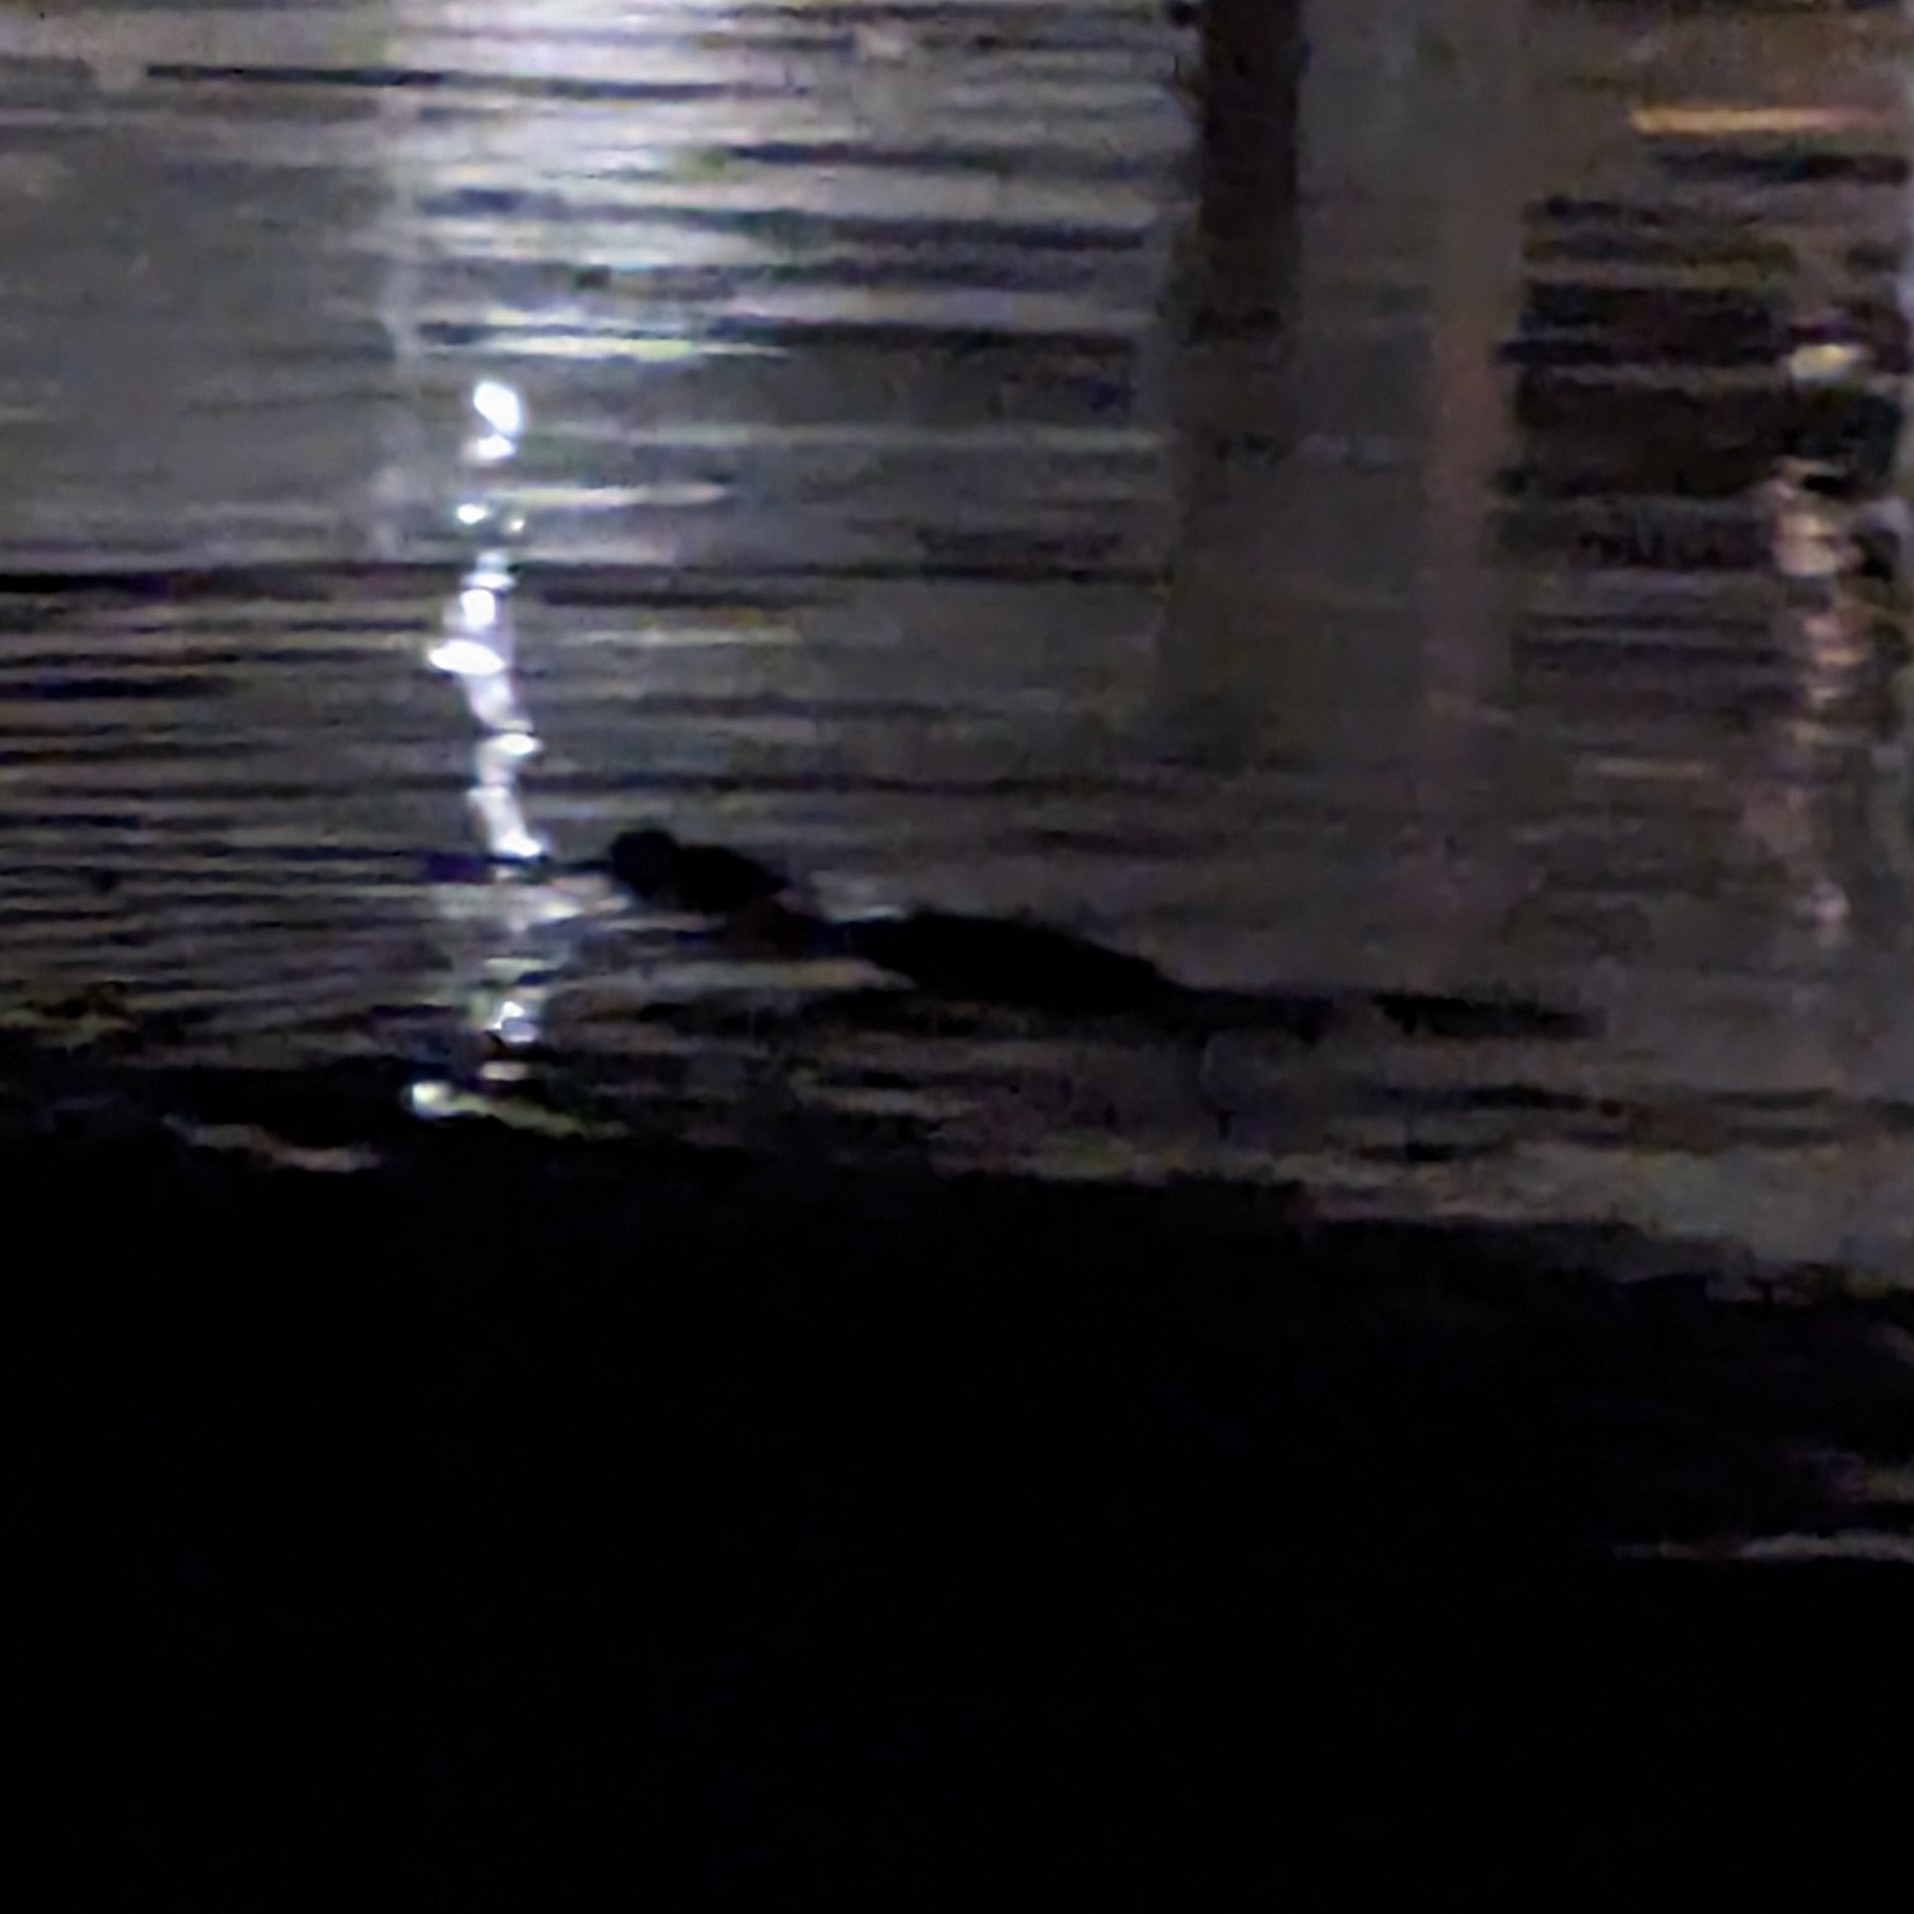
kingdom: Animalia
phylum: Chordata
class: Mammalia
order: Carnivora
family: Phocidae
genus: Phoca
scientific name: Phoca vitulina
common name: Harbor seal
